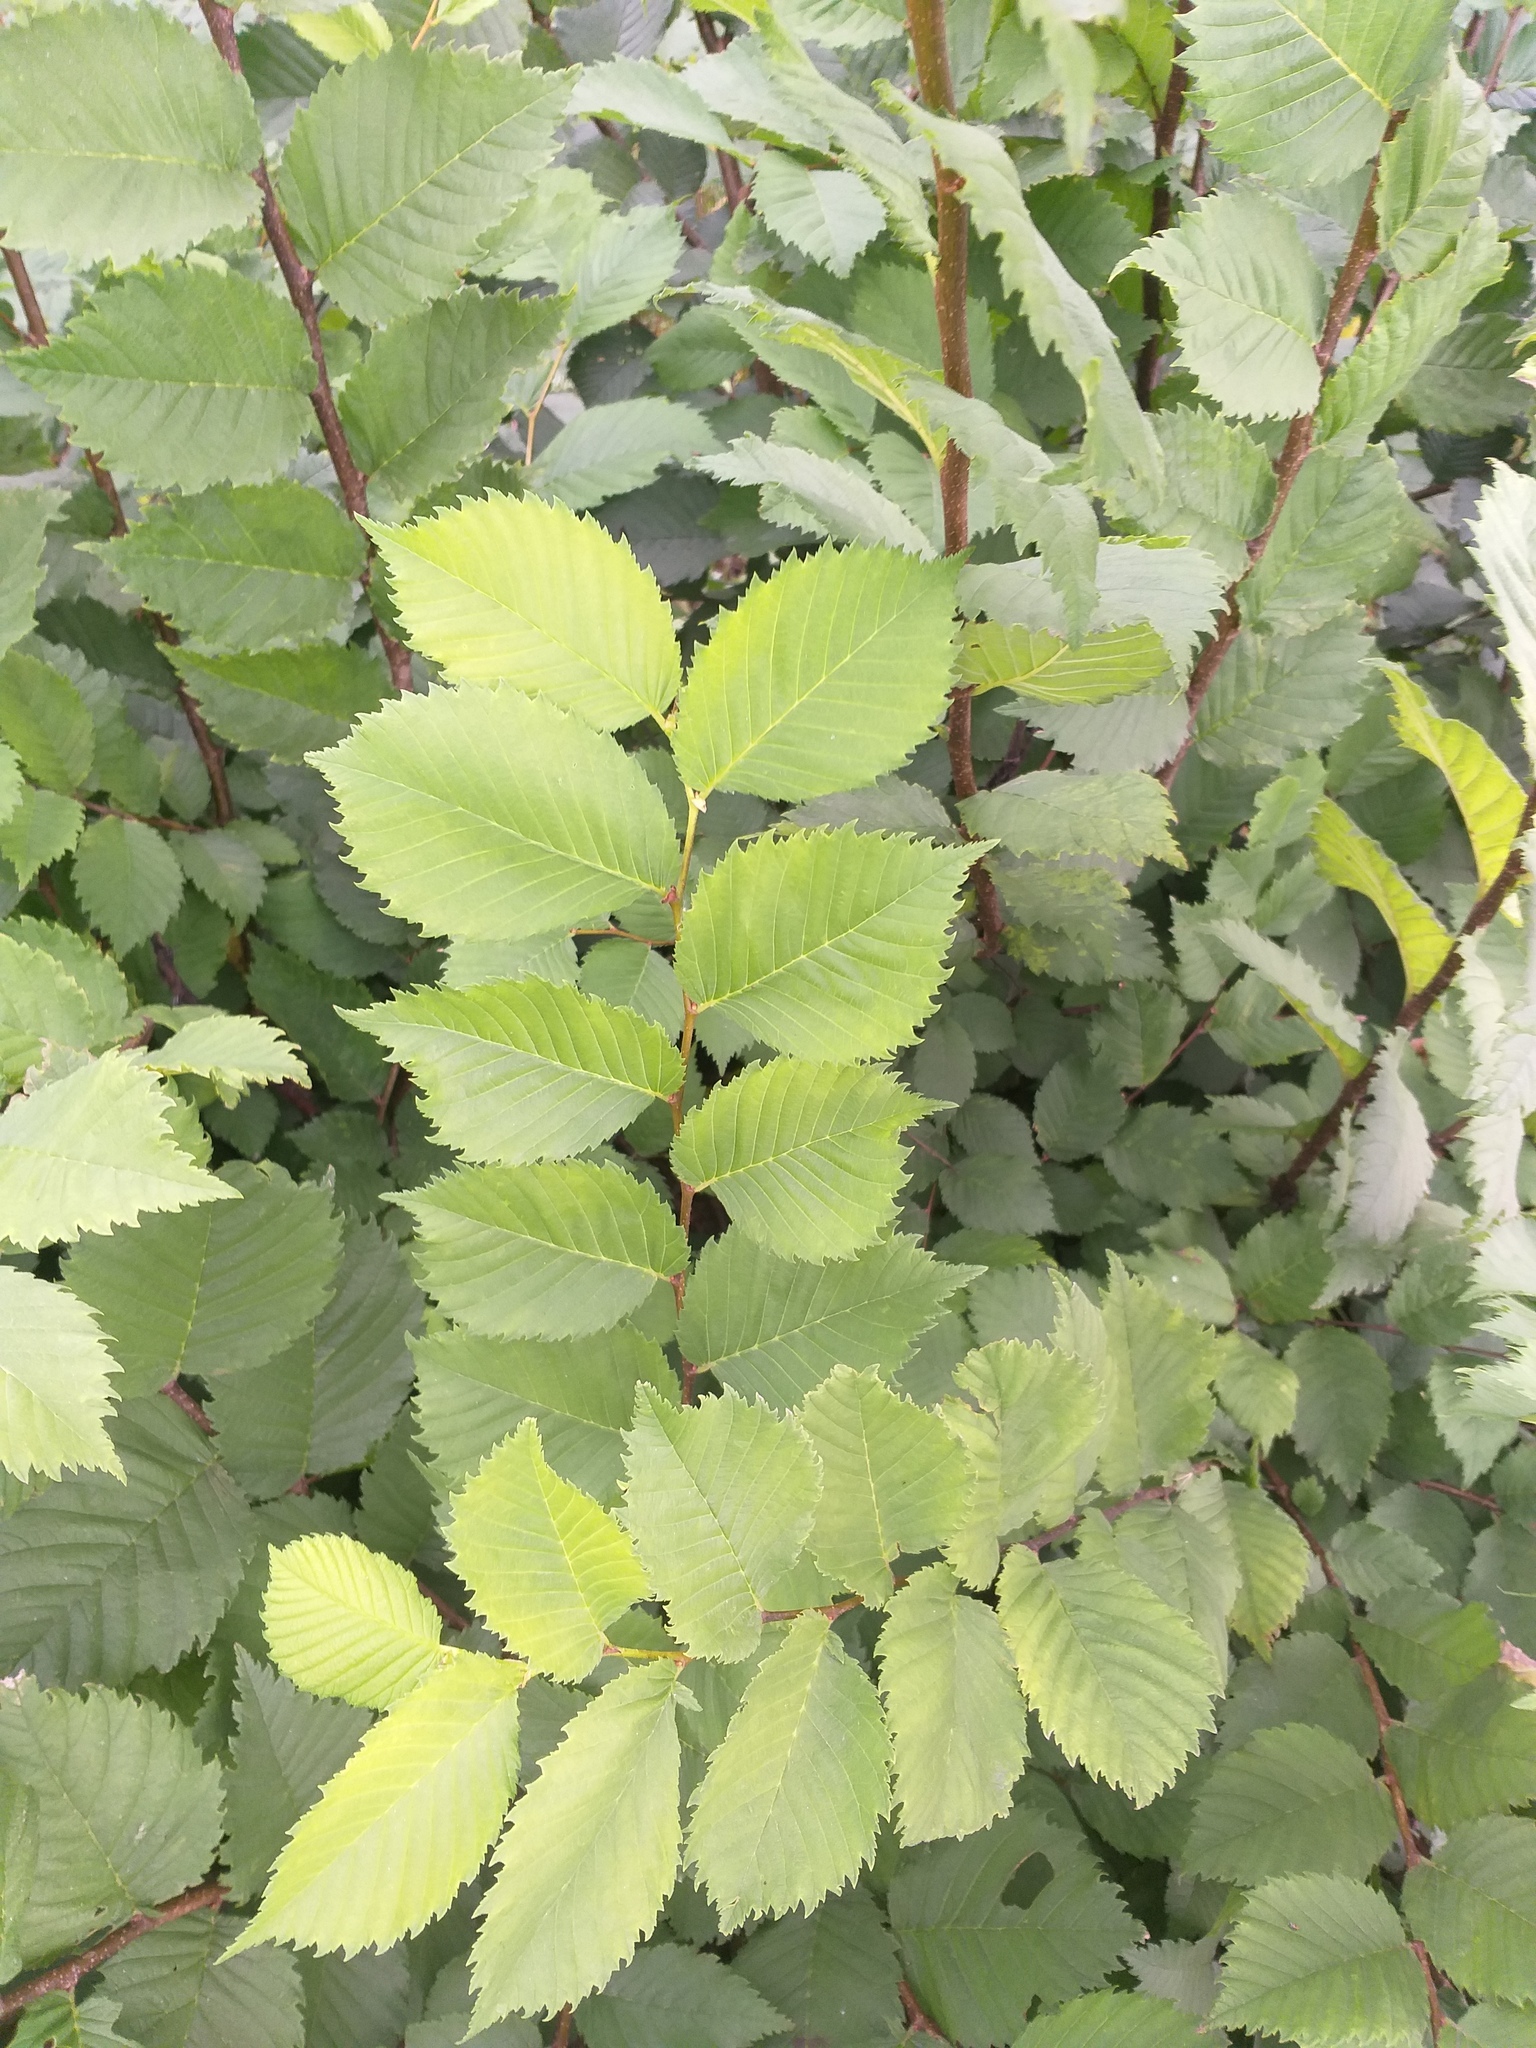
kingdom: Plantae
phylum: Tracheophyta
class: Magnoliopsida
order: Rosales
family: Ulmaceae
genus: Ulmus
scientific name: Ulmus laevis
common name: European white-elm
